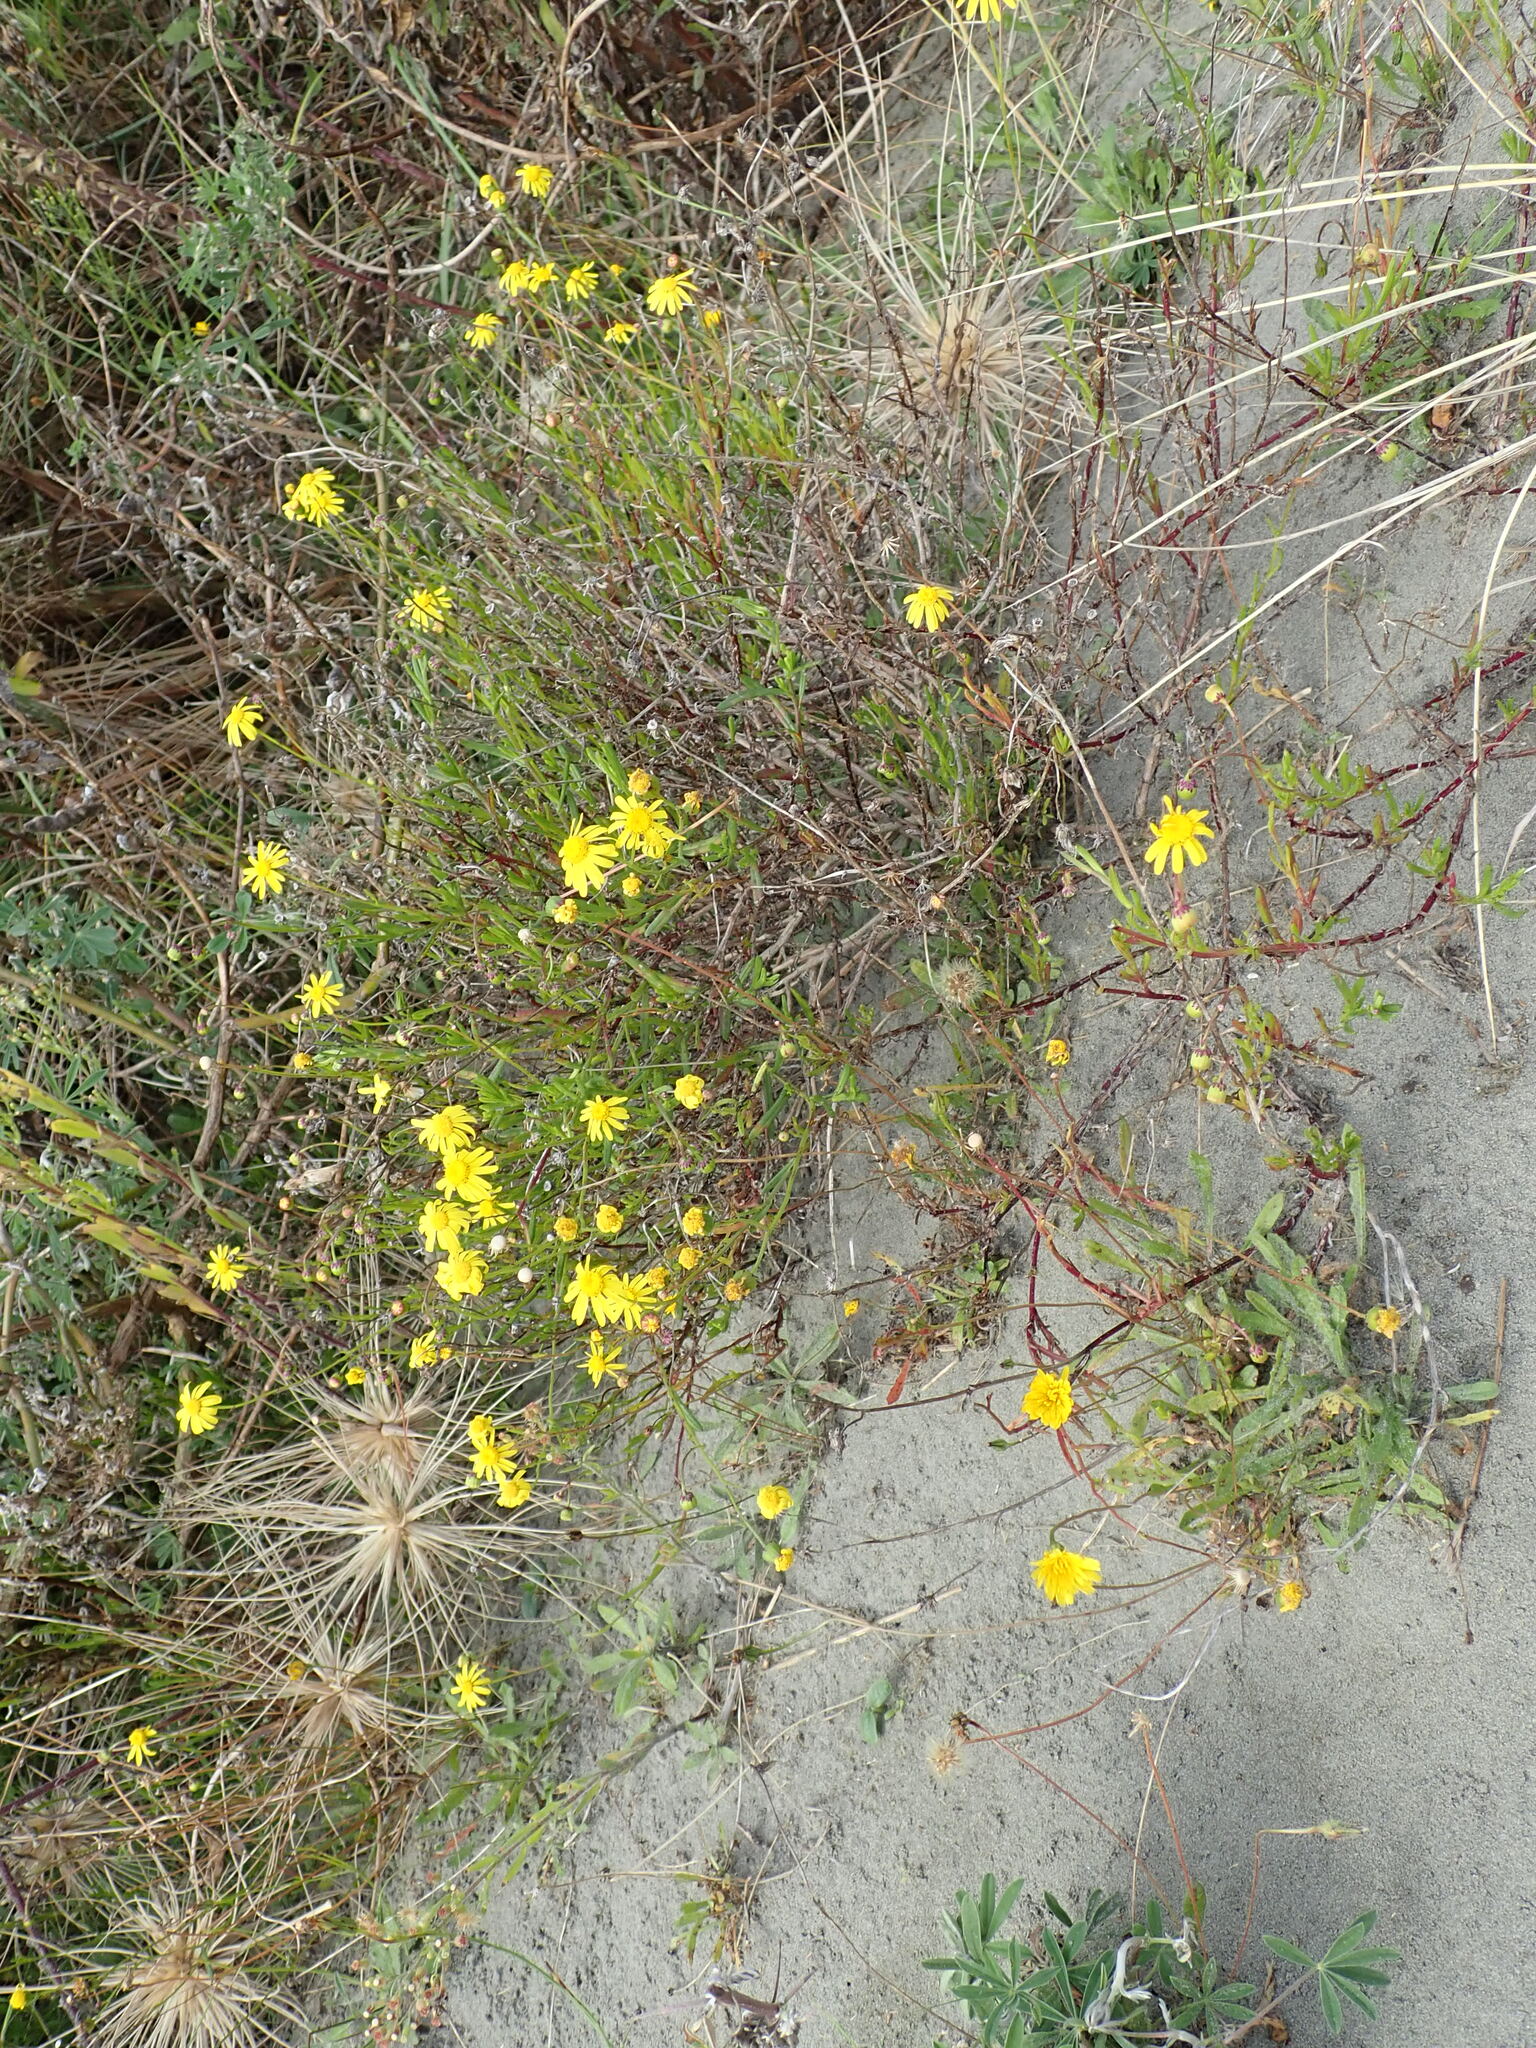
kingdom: Plantae
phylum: Tracheophyta
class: Magnoliopsida
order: Asterales
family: Asteraceae
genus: Senecio
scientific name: Senecio skirrhodon
